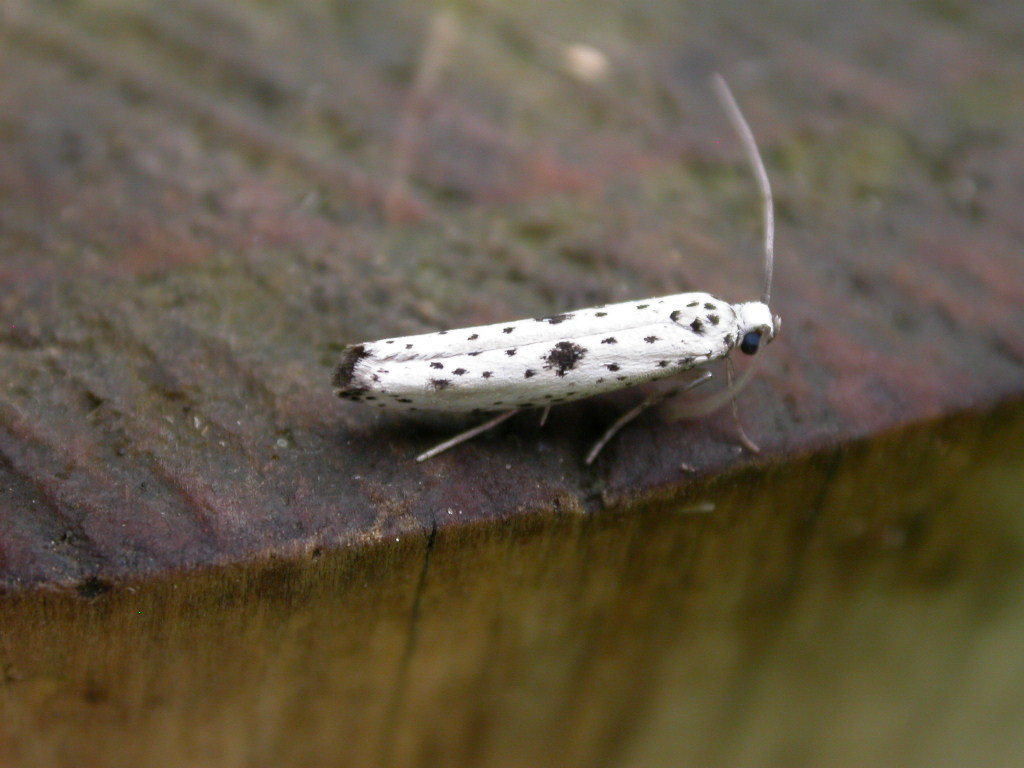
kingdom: Animalia
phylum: Arthropoda
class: Insecta
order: Lepidoptera
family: Yponomeutidae
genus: Yponomeuta
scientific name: Yponomeuta plumbella
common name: Black-tipped ermine
